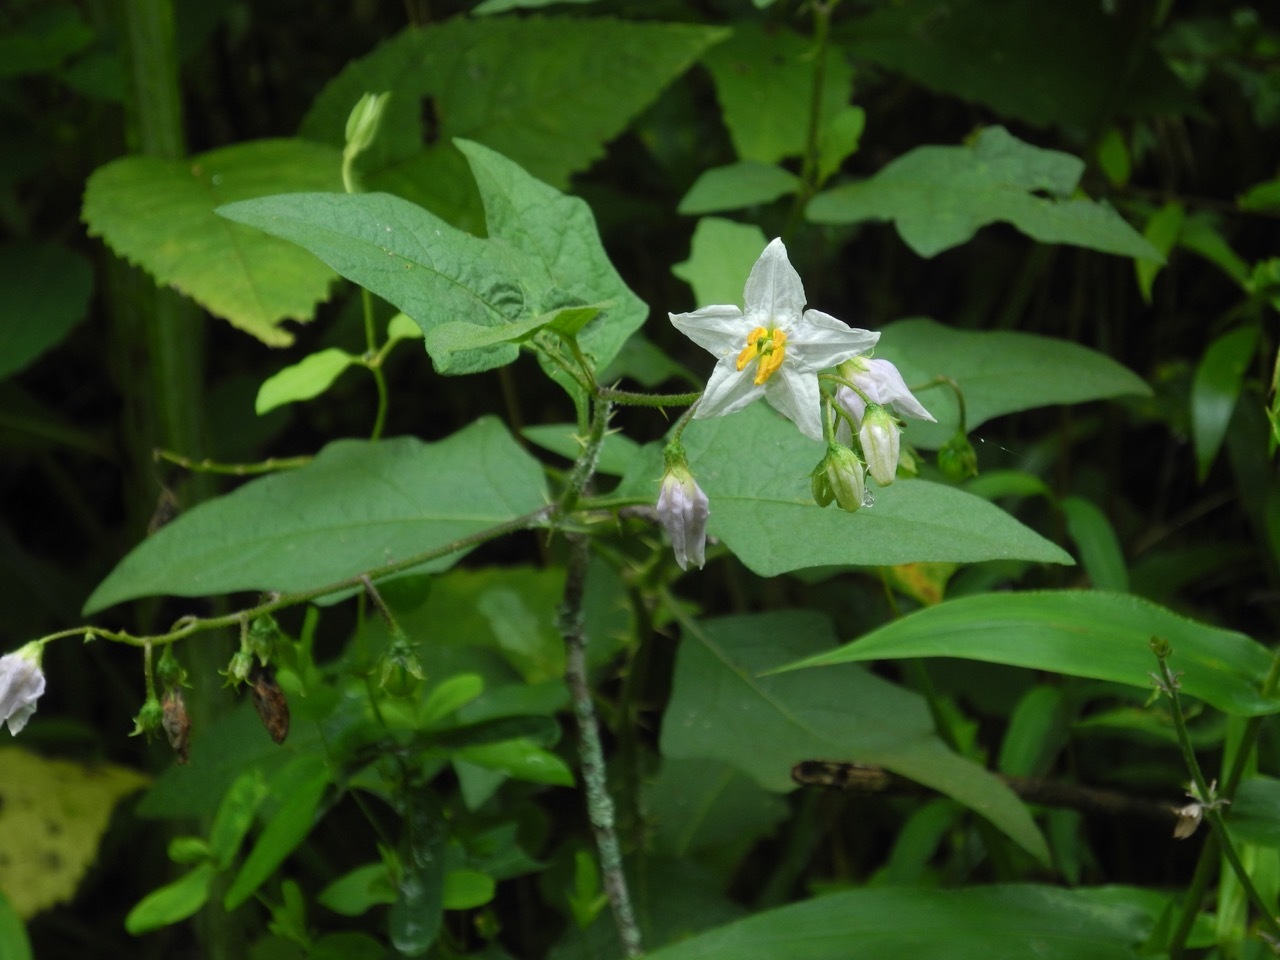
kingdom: Plantae
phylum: Tracheophyta
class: Magnoliopsida
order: Solanales
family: Solanaceae
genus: Solanum
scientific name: Solanum carolinense
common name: Horse-nettle
